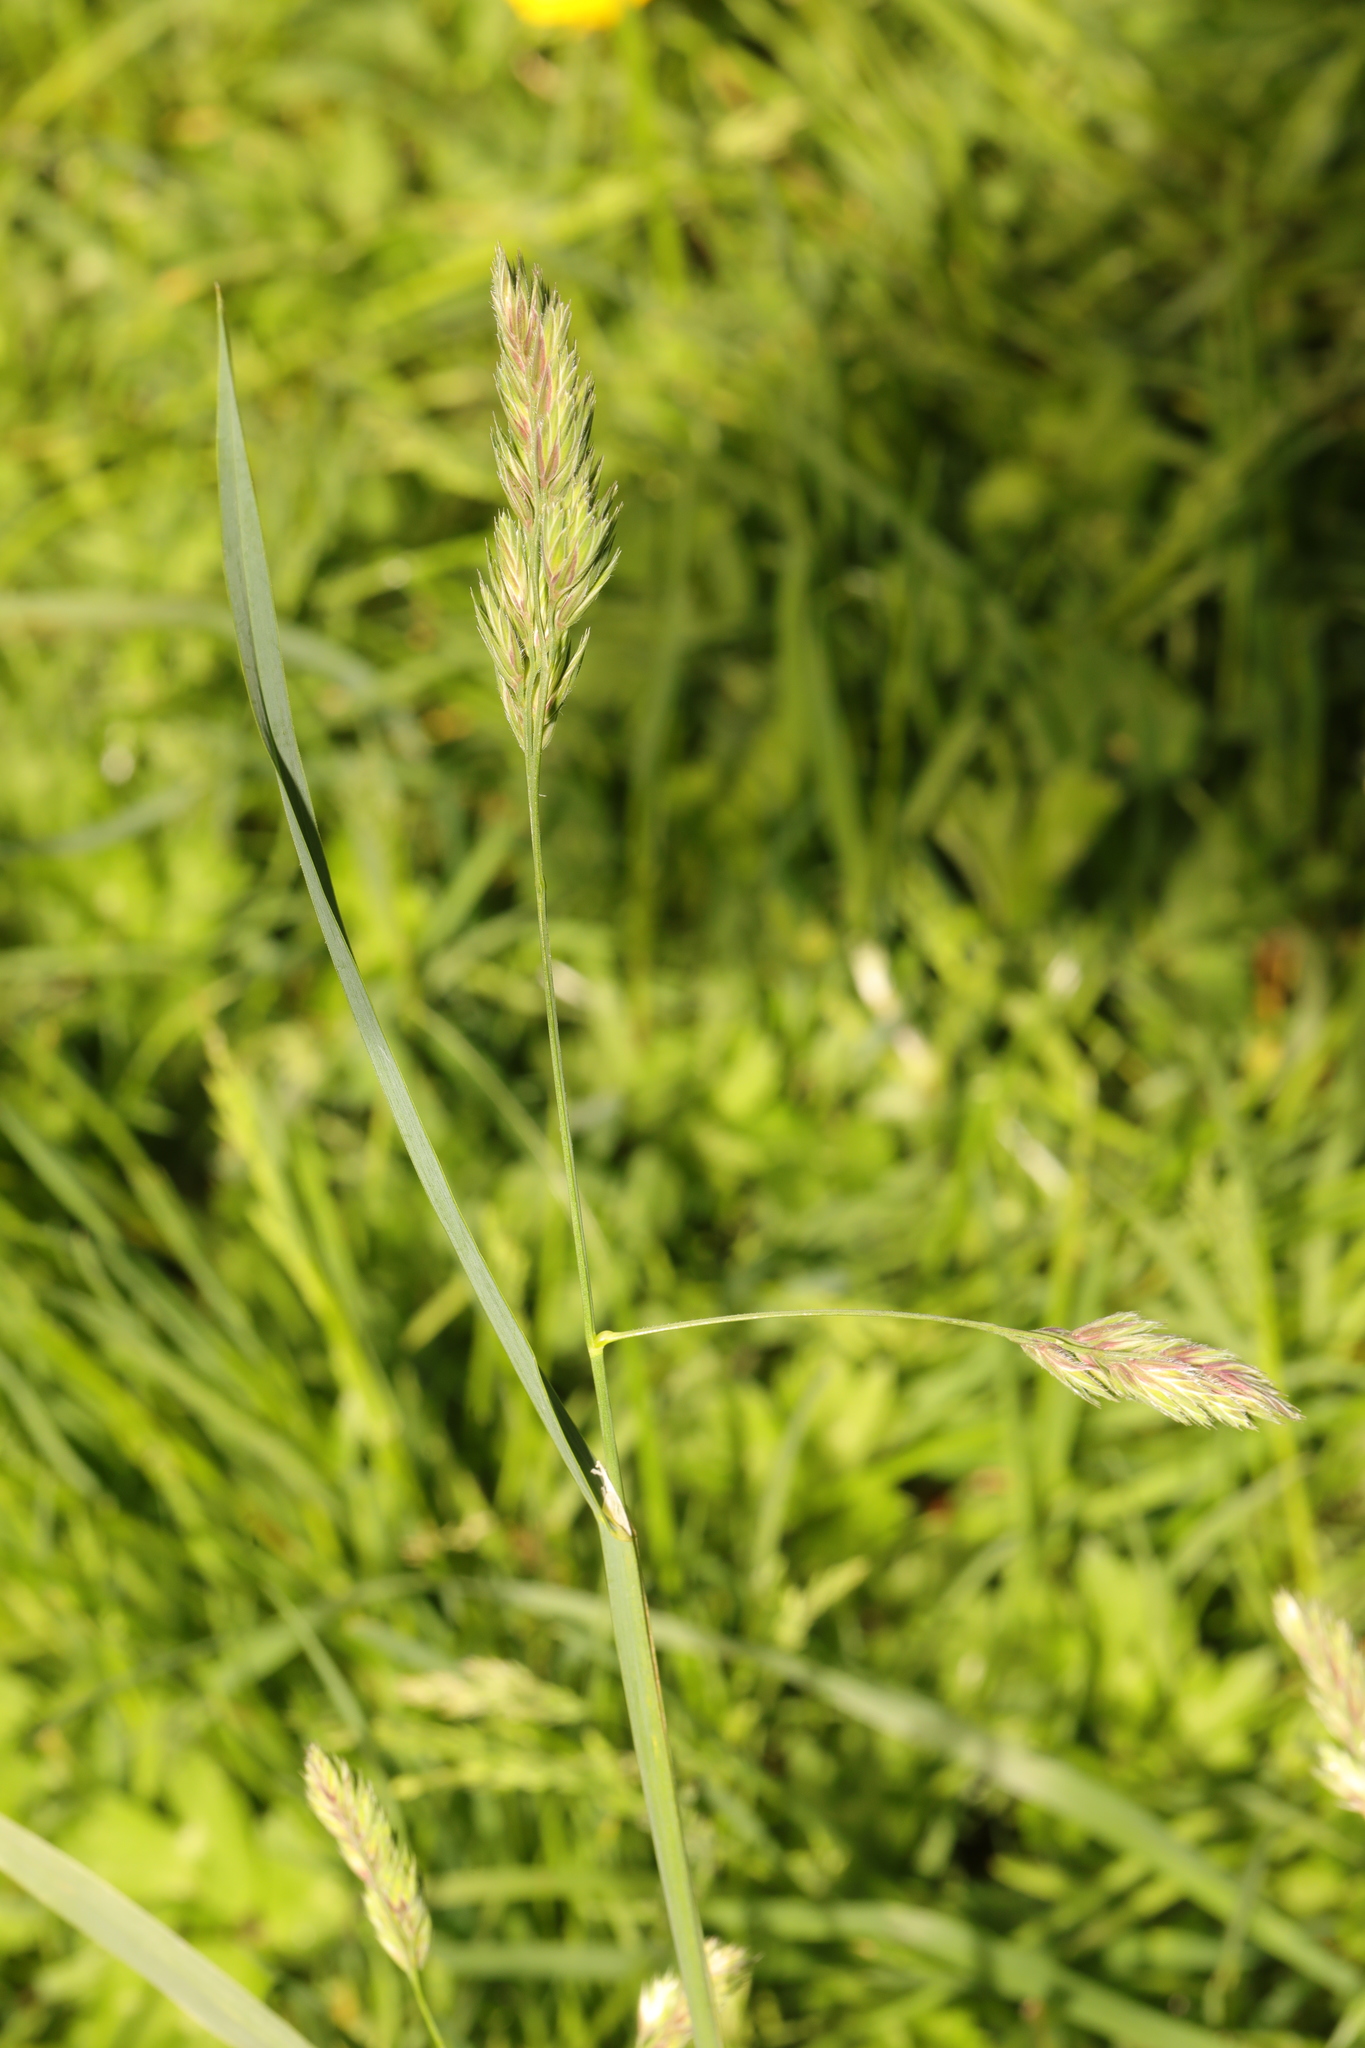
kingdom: Plantae
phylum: Tracheophyta
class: Liliopsida
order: Poales
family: Poaceae
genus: Dactylis
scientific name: Dactylis glomerata
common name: Orchardgrass
